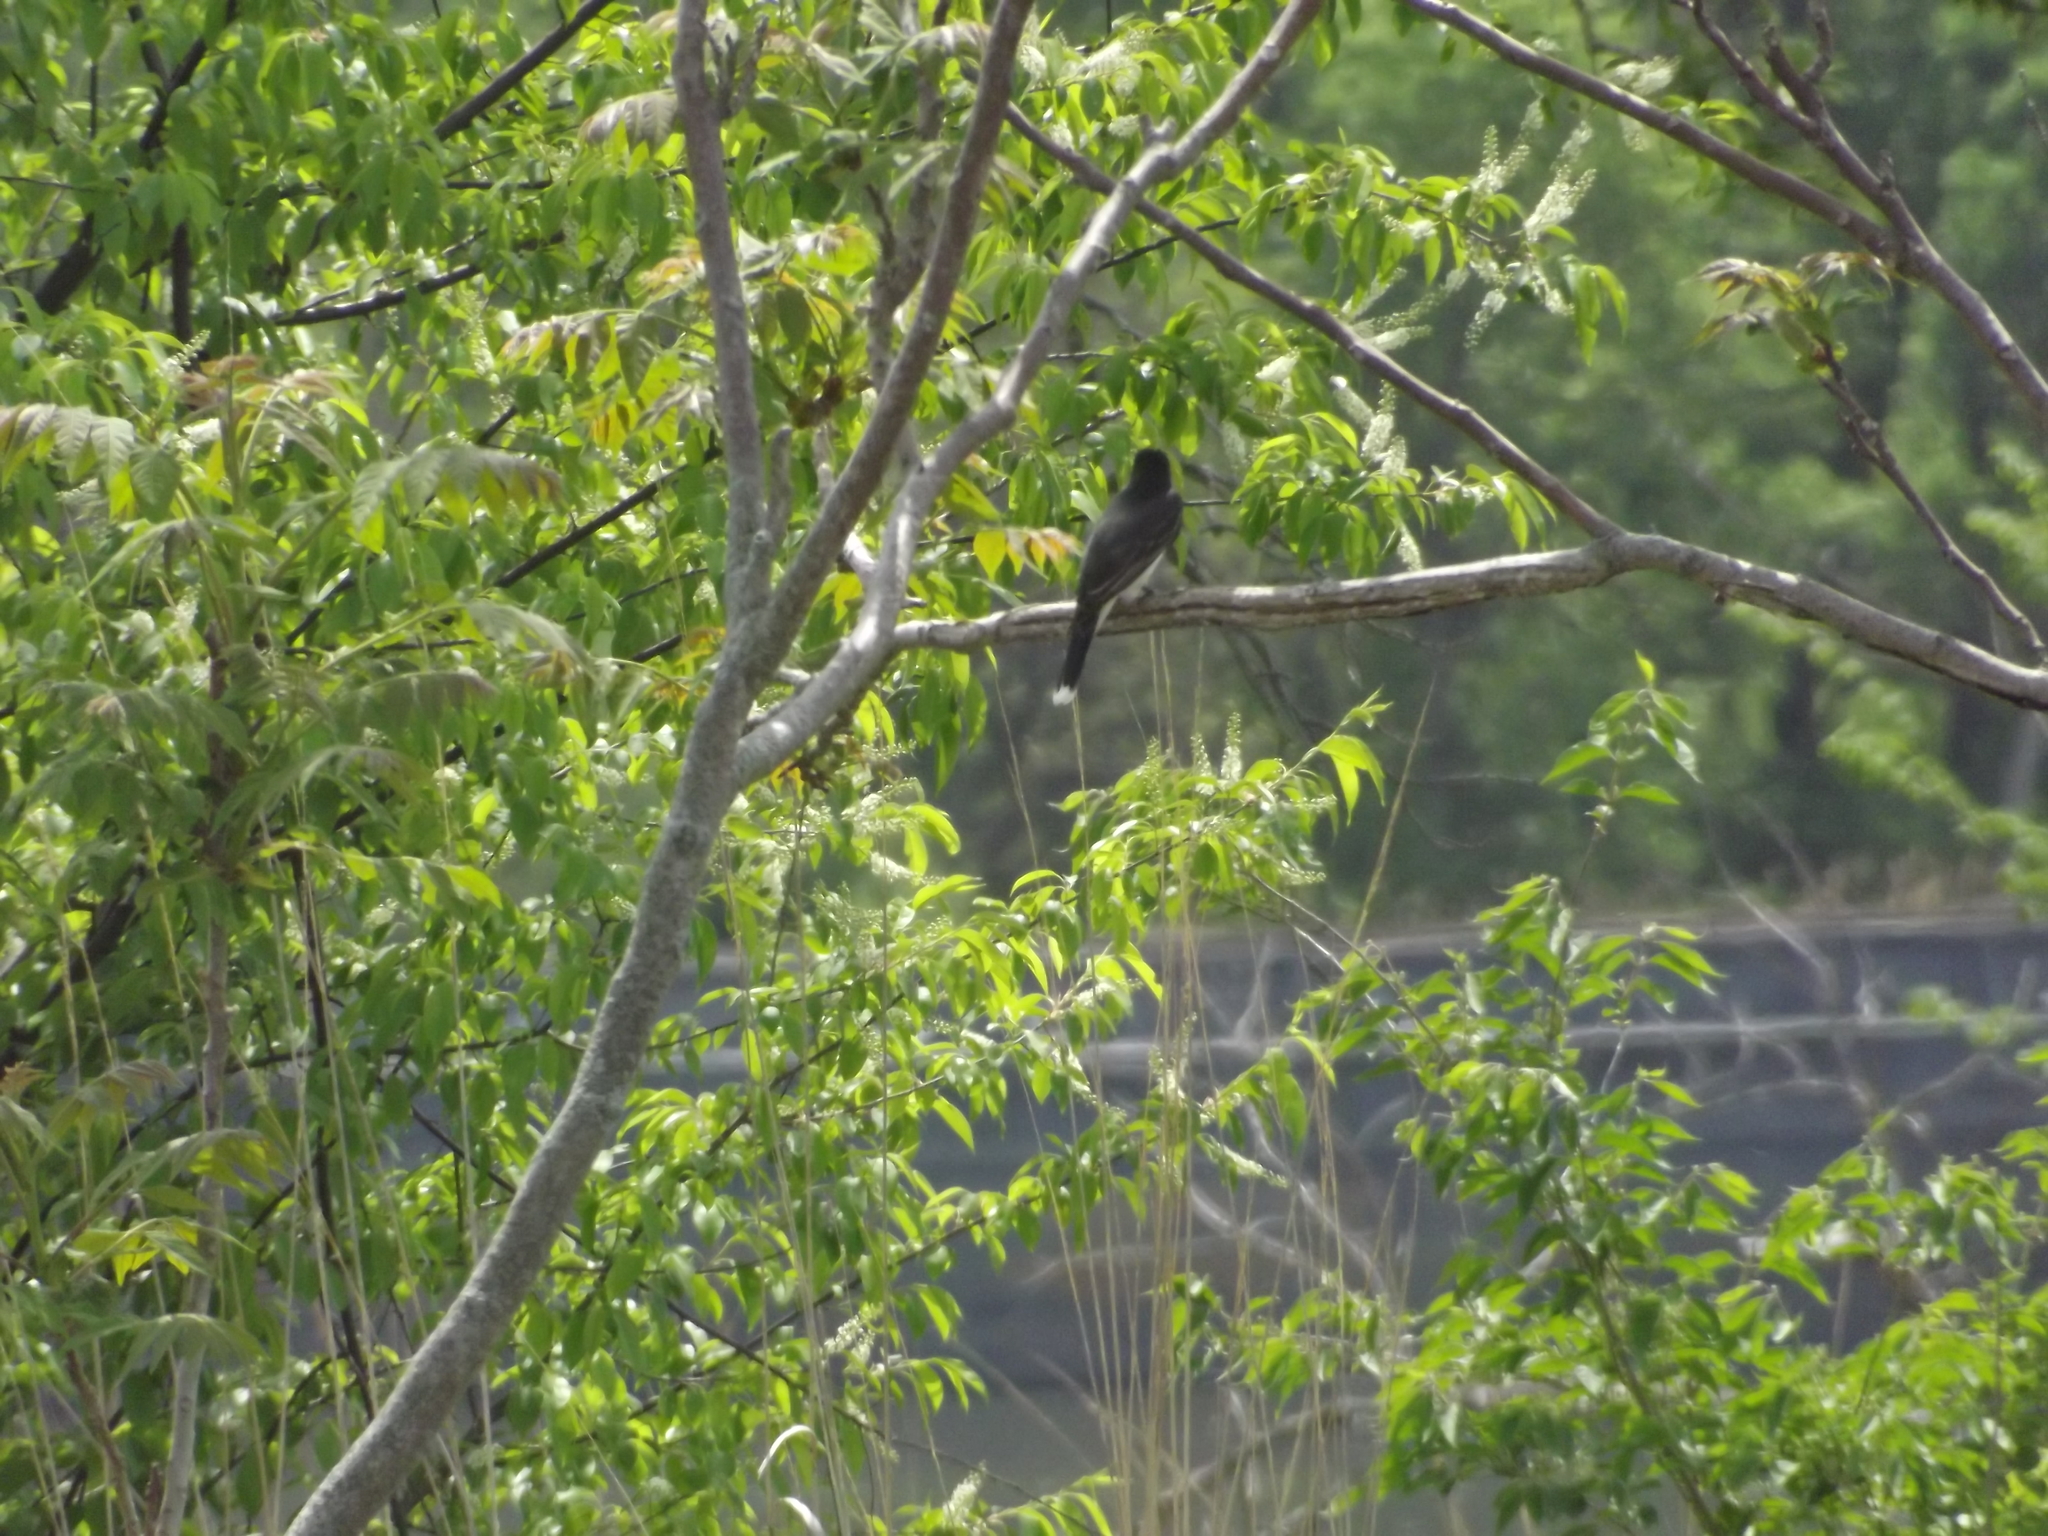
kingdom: Animalia
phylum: Chordata
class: Aves
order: Passeriformes
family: Tyrannidae
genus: Tyrannus
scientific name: Tyrannus tyrannus
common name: Eastern kingbird
